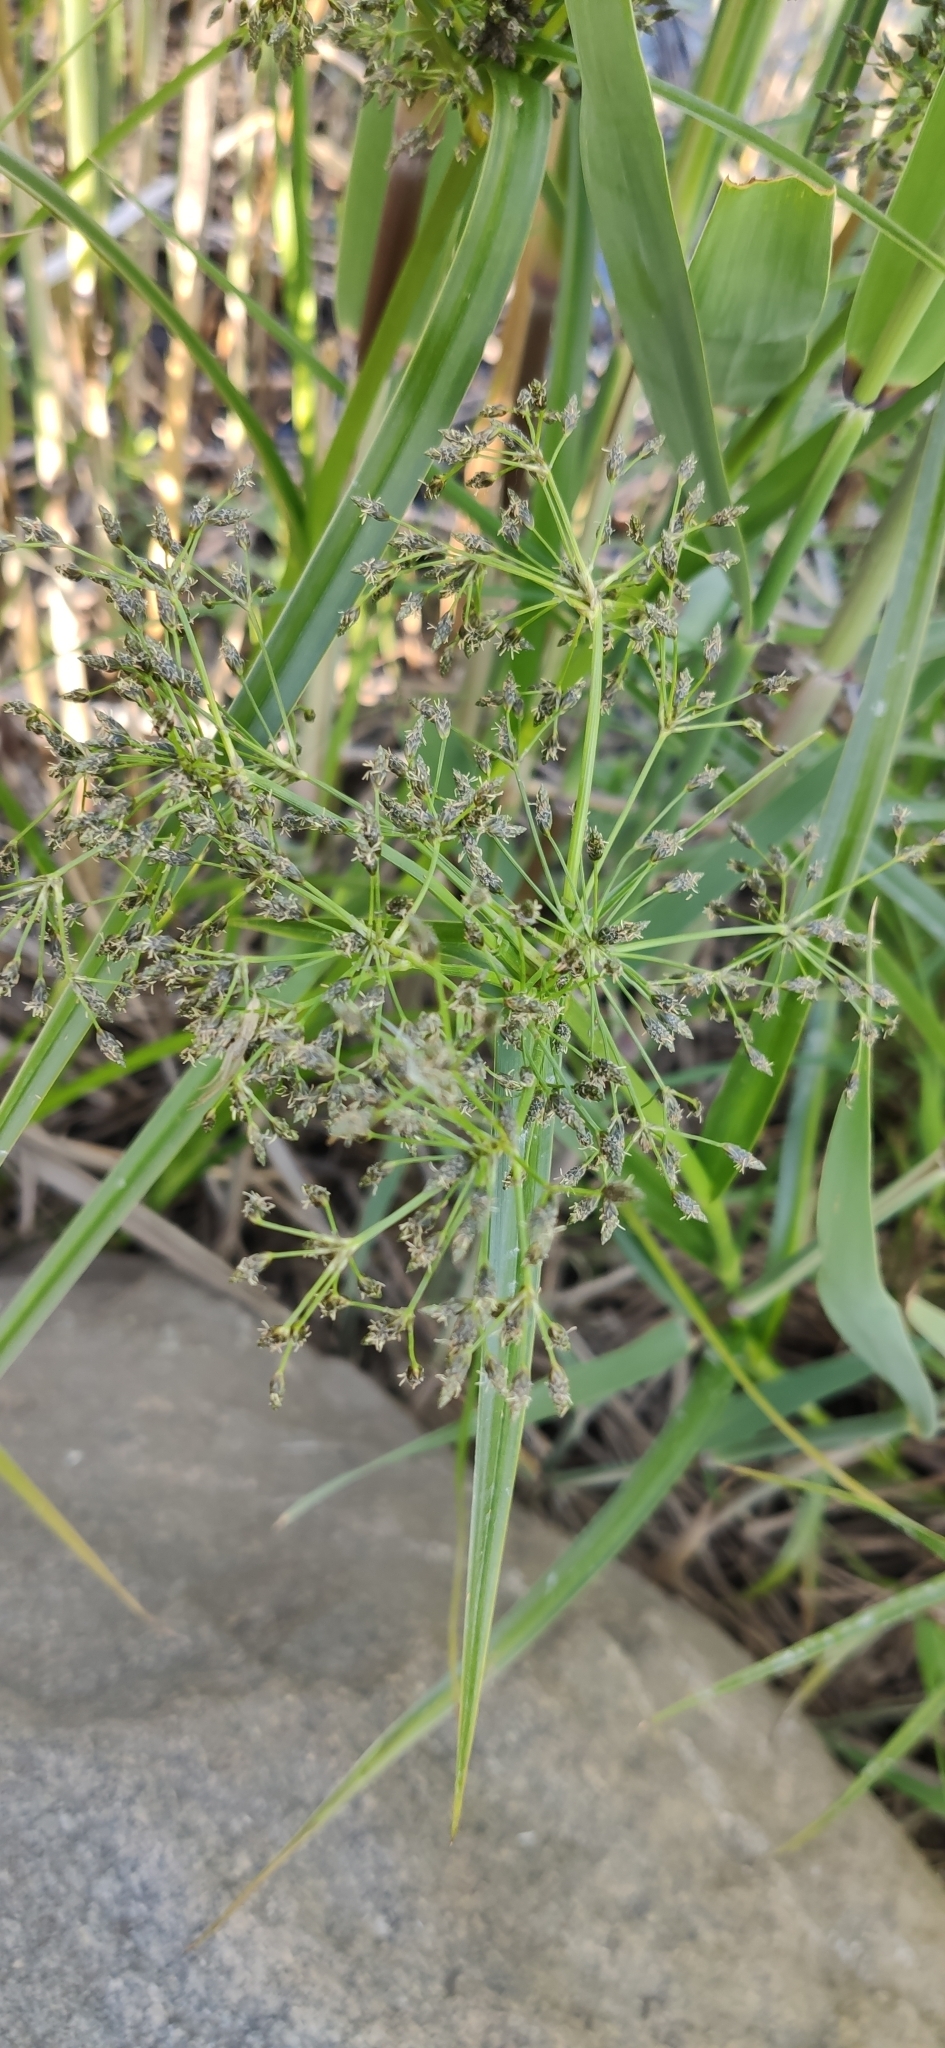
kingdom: Plantae
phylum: Tracheophyta
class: Liliopsida
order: Poales
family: Cyperaceae
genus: Scirpus
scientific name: Scirpus sylvaticus
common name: Wood club-rush
